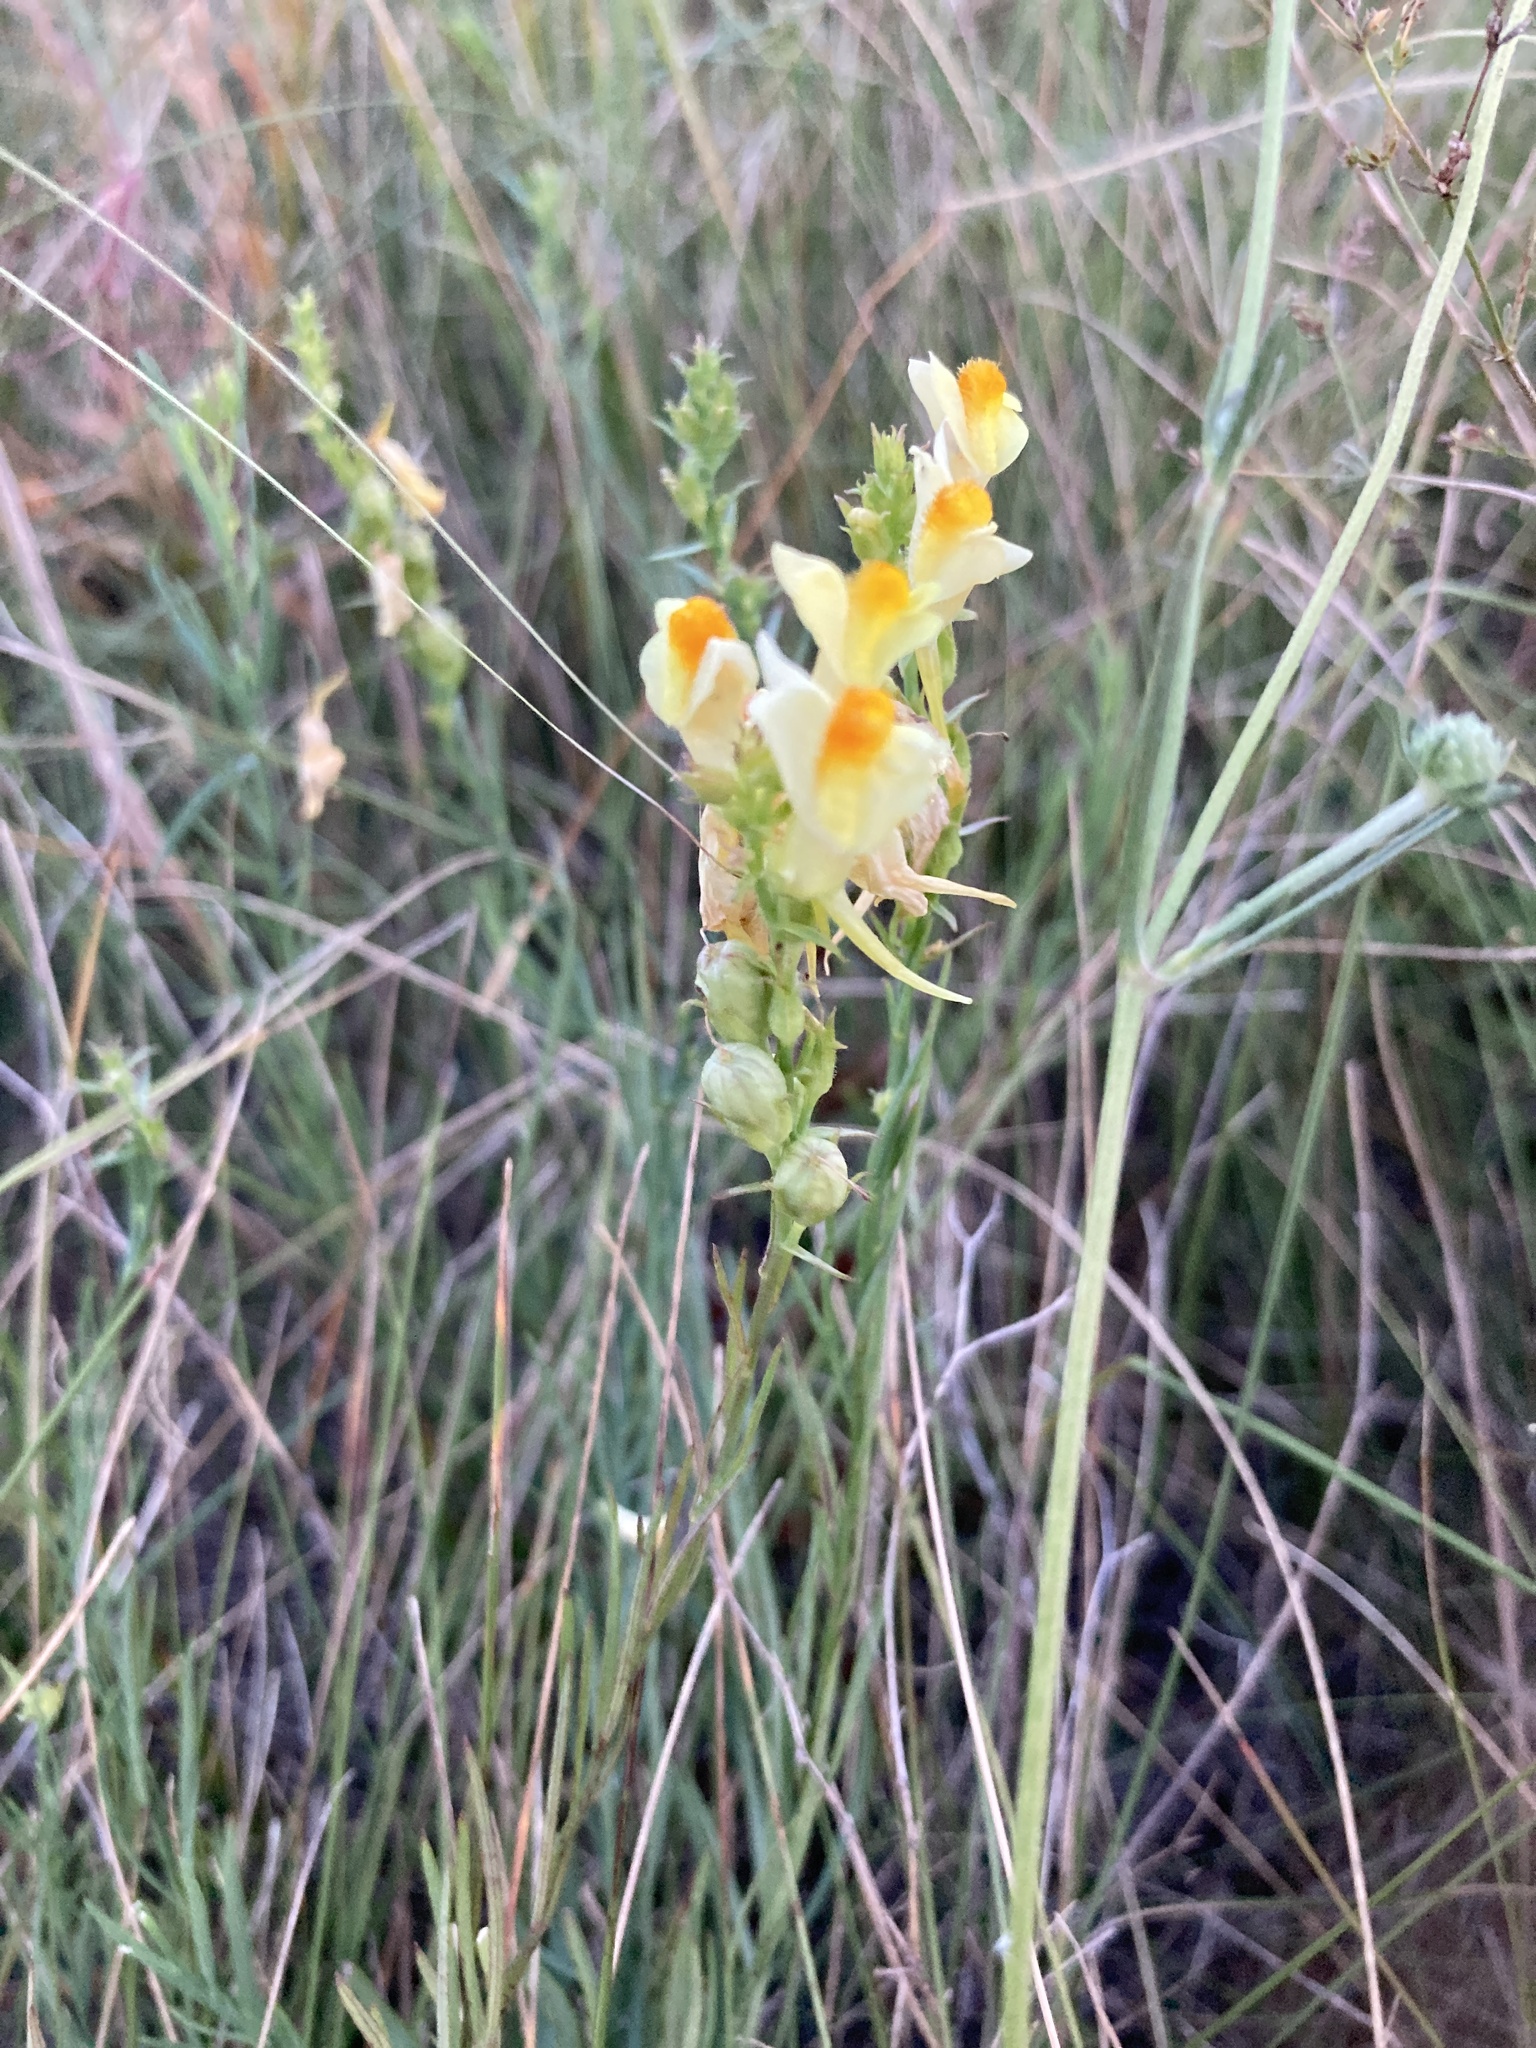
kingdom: Plantae
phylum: Tracheophyta
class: Magnoliopsida
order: Lamiales
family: Plantaginaceae
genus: Linaria
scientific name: Linaria vulgaris
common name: Butter and eggs
